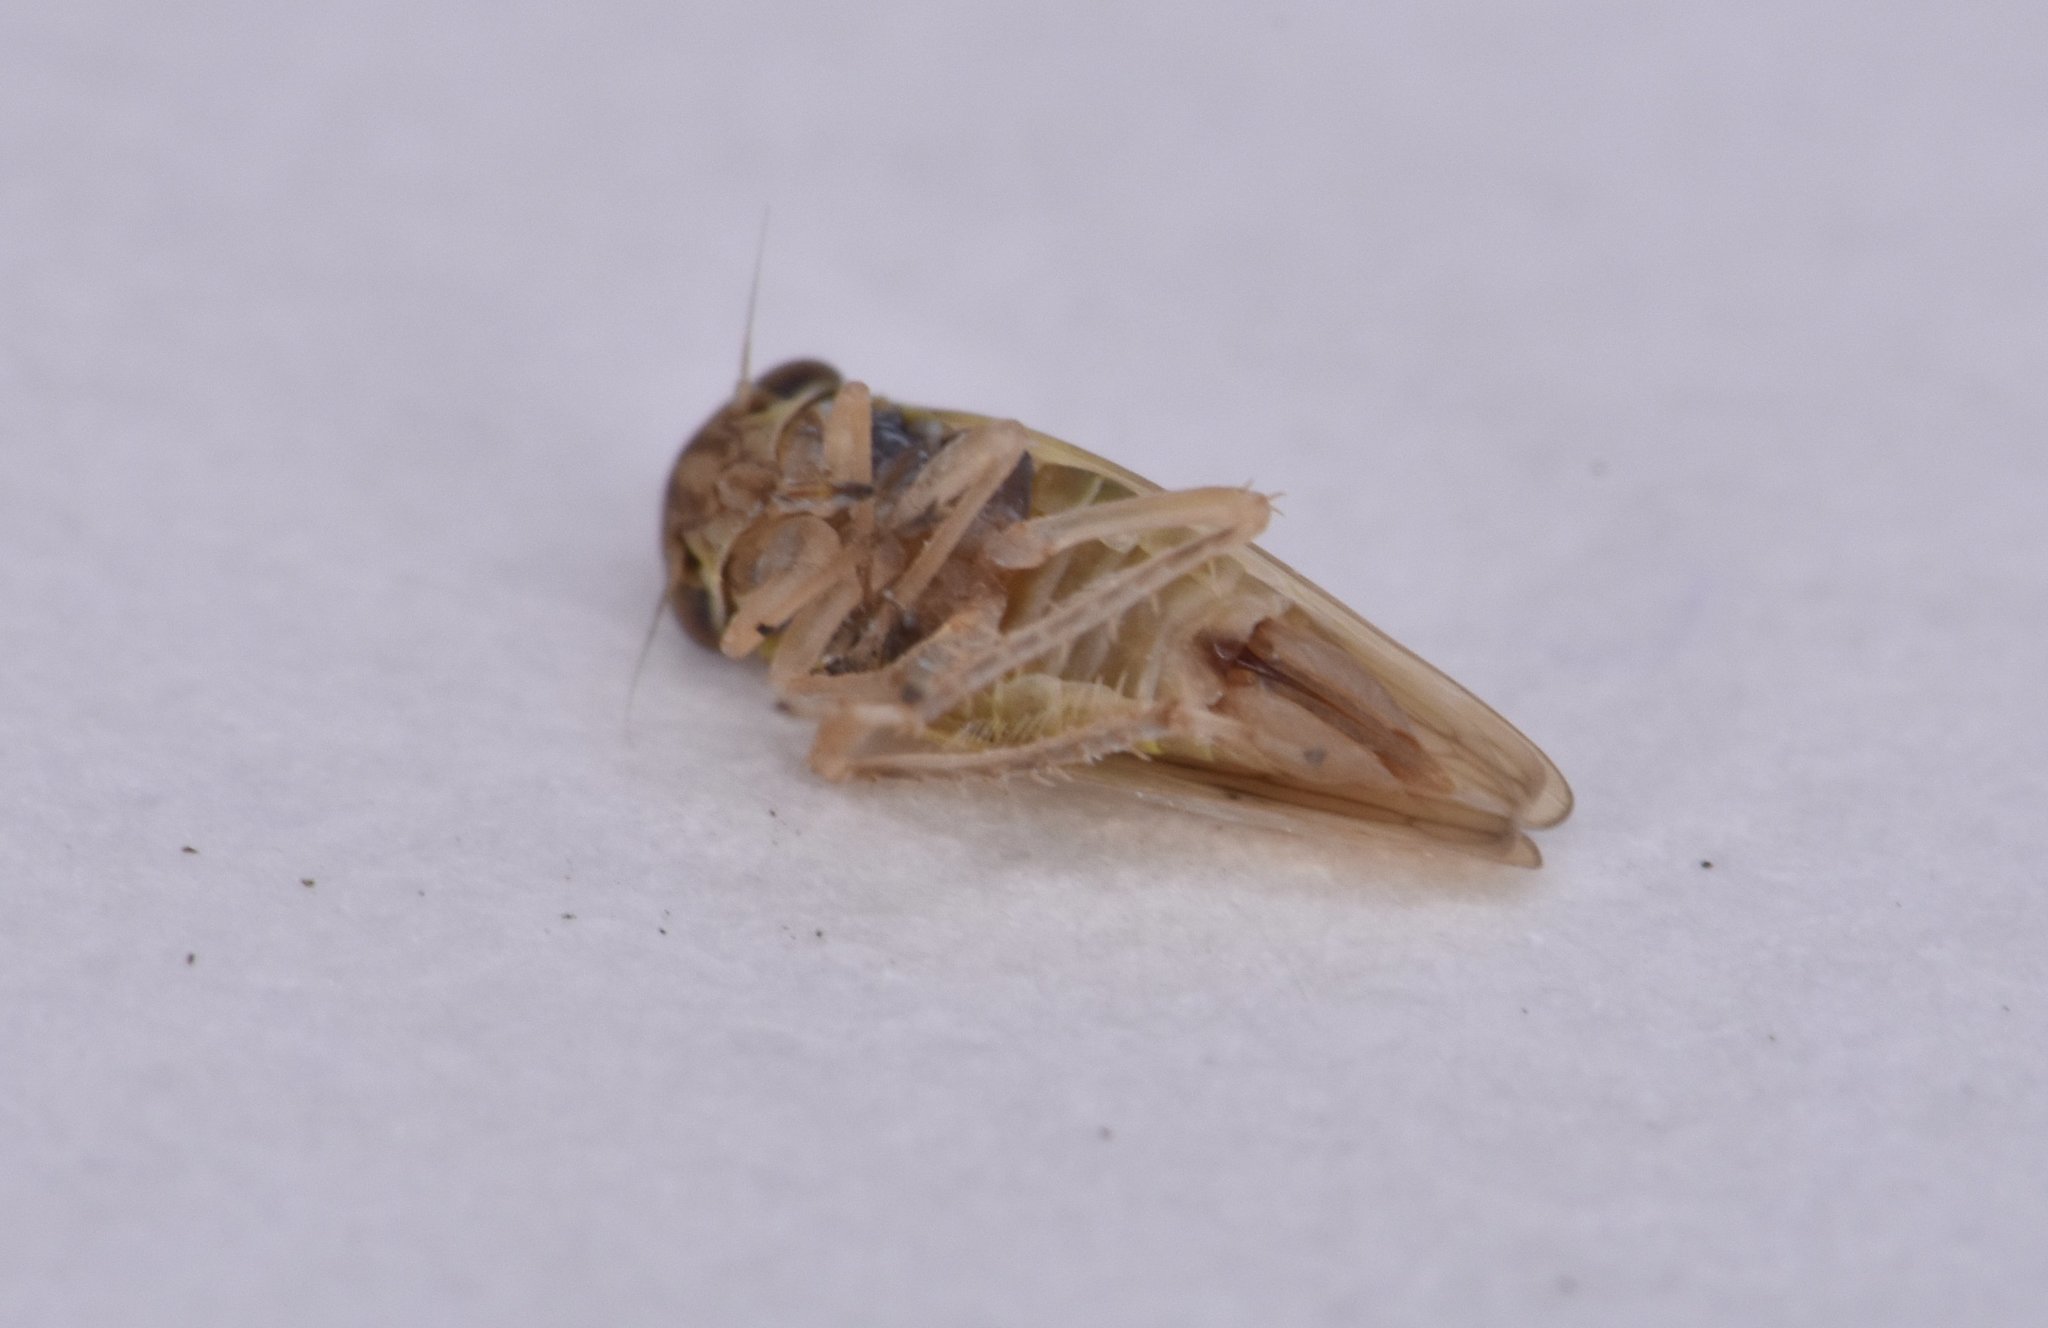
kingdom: Animalia
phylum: Arthropoda
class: Insecta
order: Hemiptera
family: Cicadellidae
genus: Agallia
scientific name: Agallia albidula
